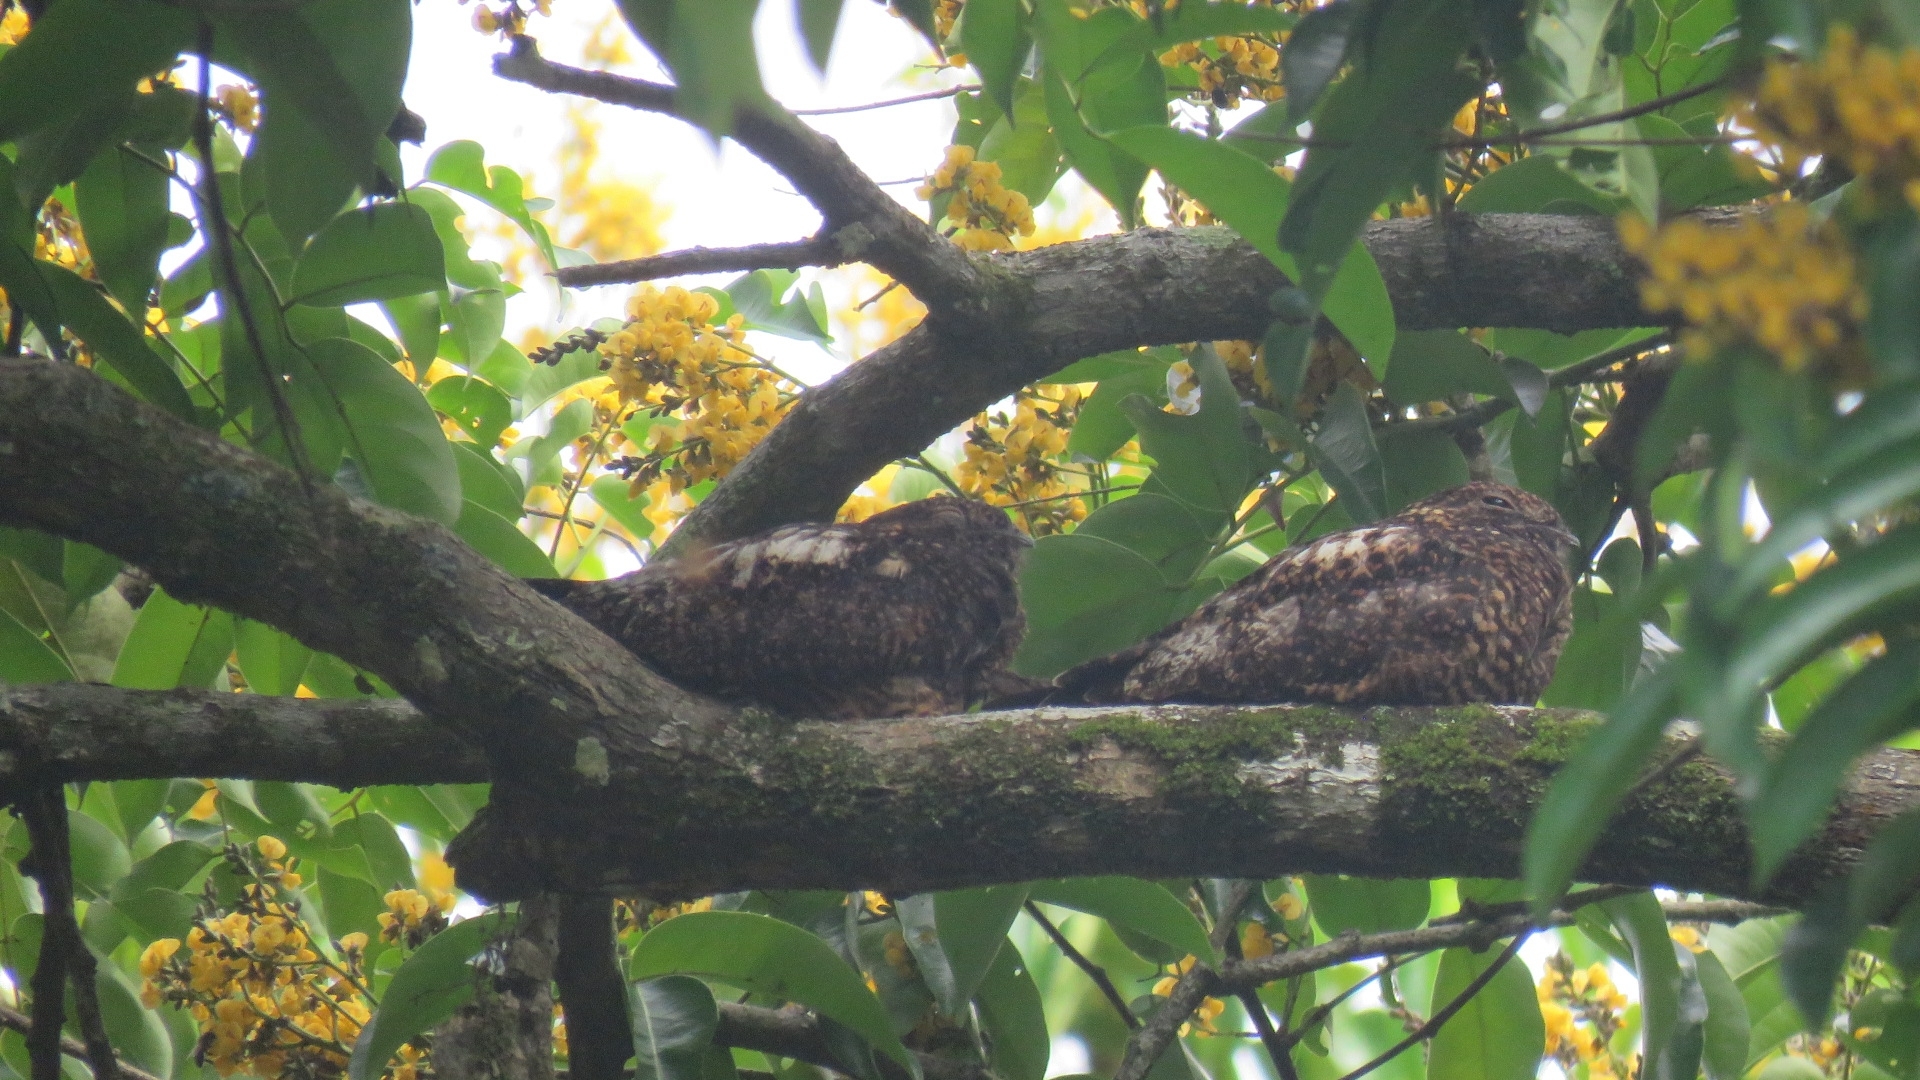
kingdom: Animalia
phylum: Chordata
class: Aves
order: Caprimulgiformes
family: Caprimulgidae
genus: Lurocalis
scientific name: Lurocalis semitorquatus
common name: Short-tailed nighthawk
